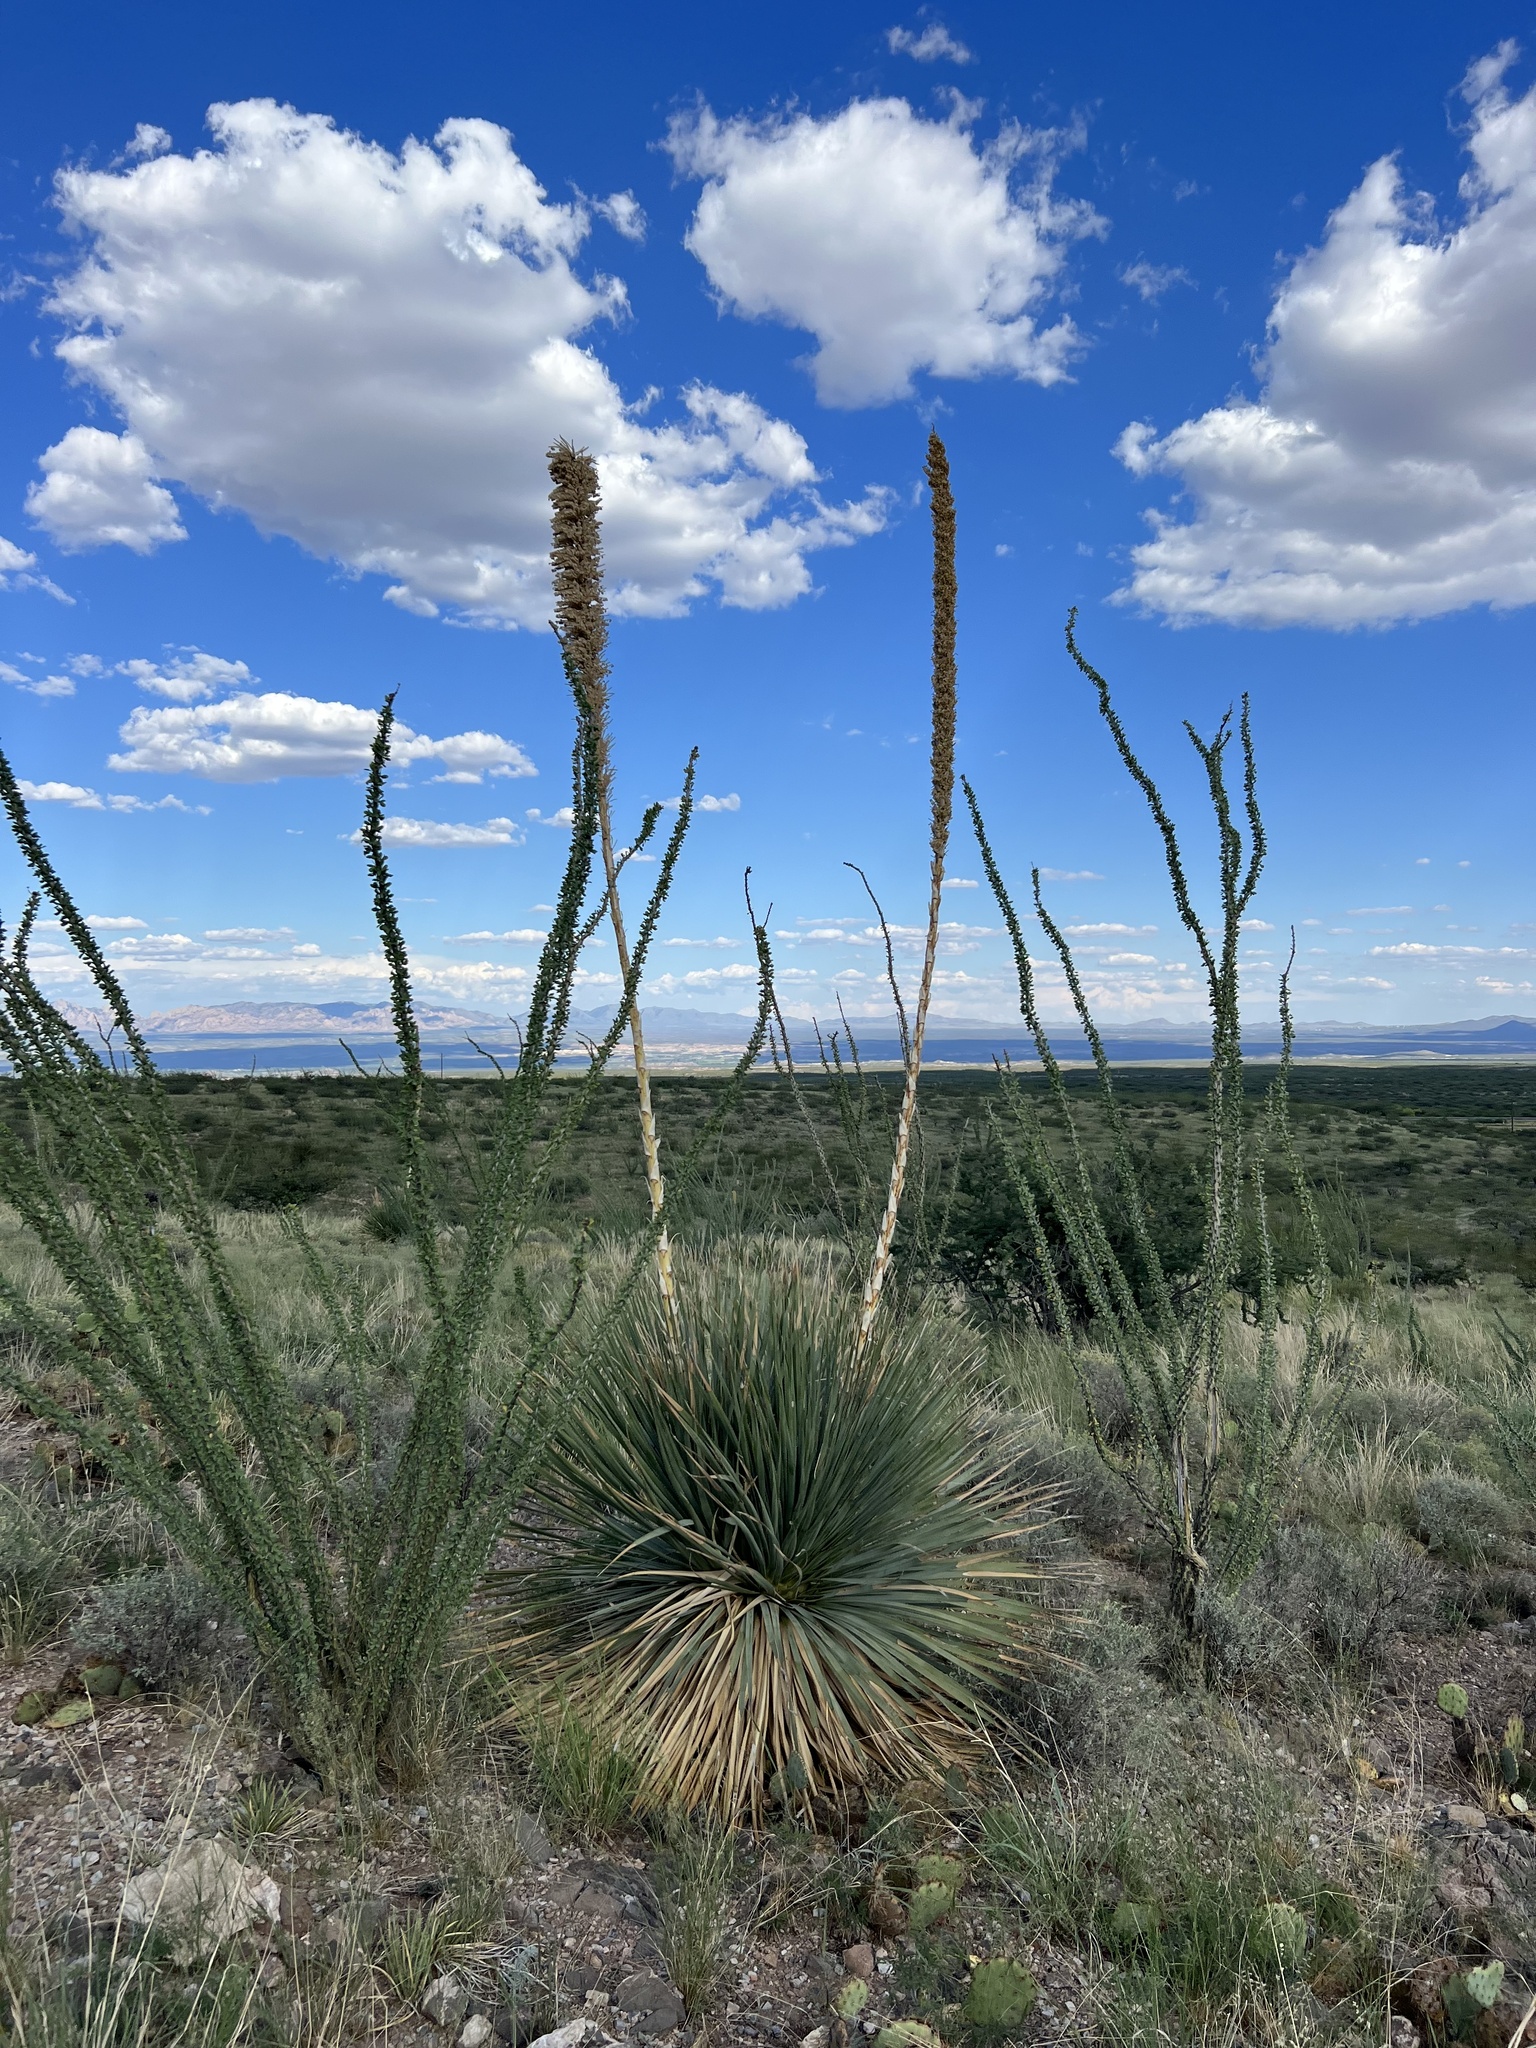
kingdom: Plantae
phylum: Tracheophyta
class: Liliopsida
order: Asparagales
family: Asparagaceae
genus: Dasylirion
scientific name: Dasylirion wheeleri
